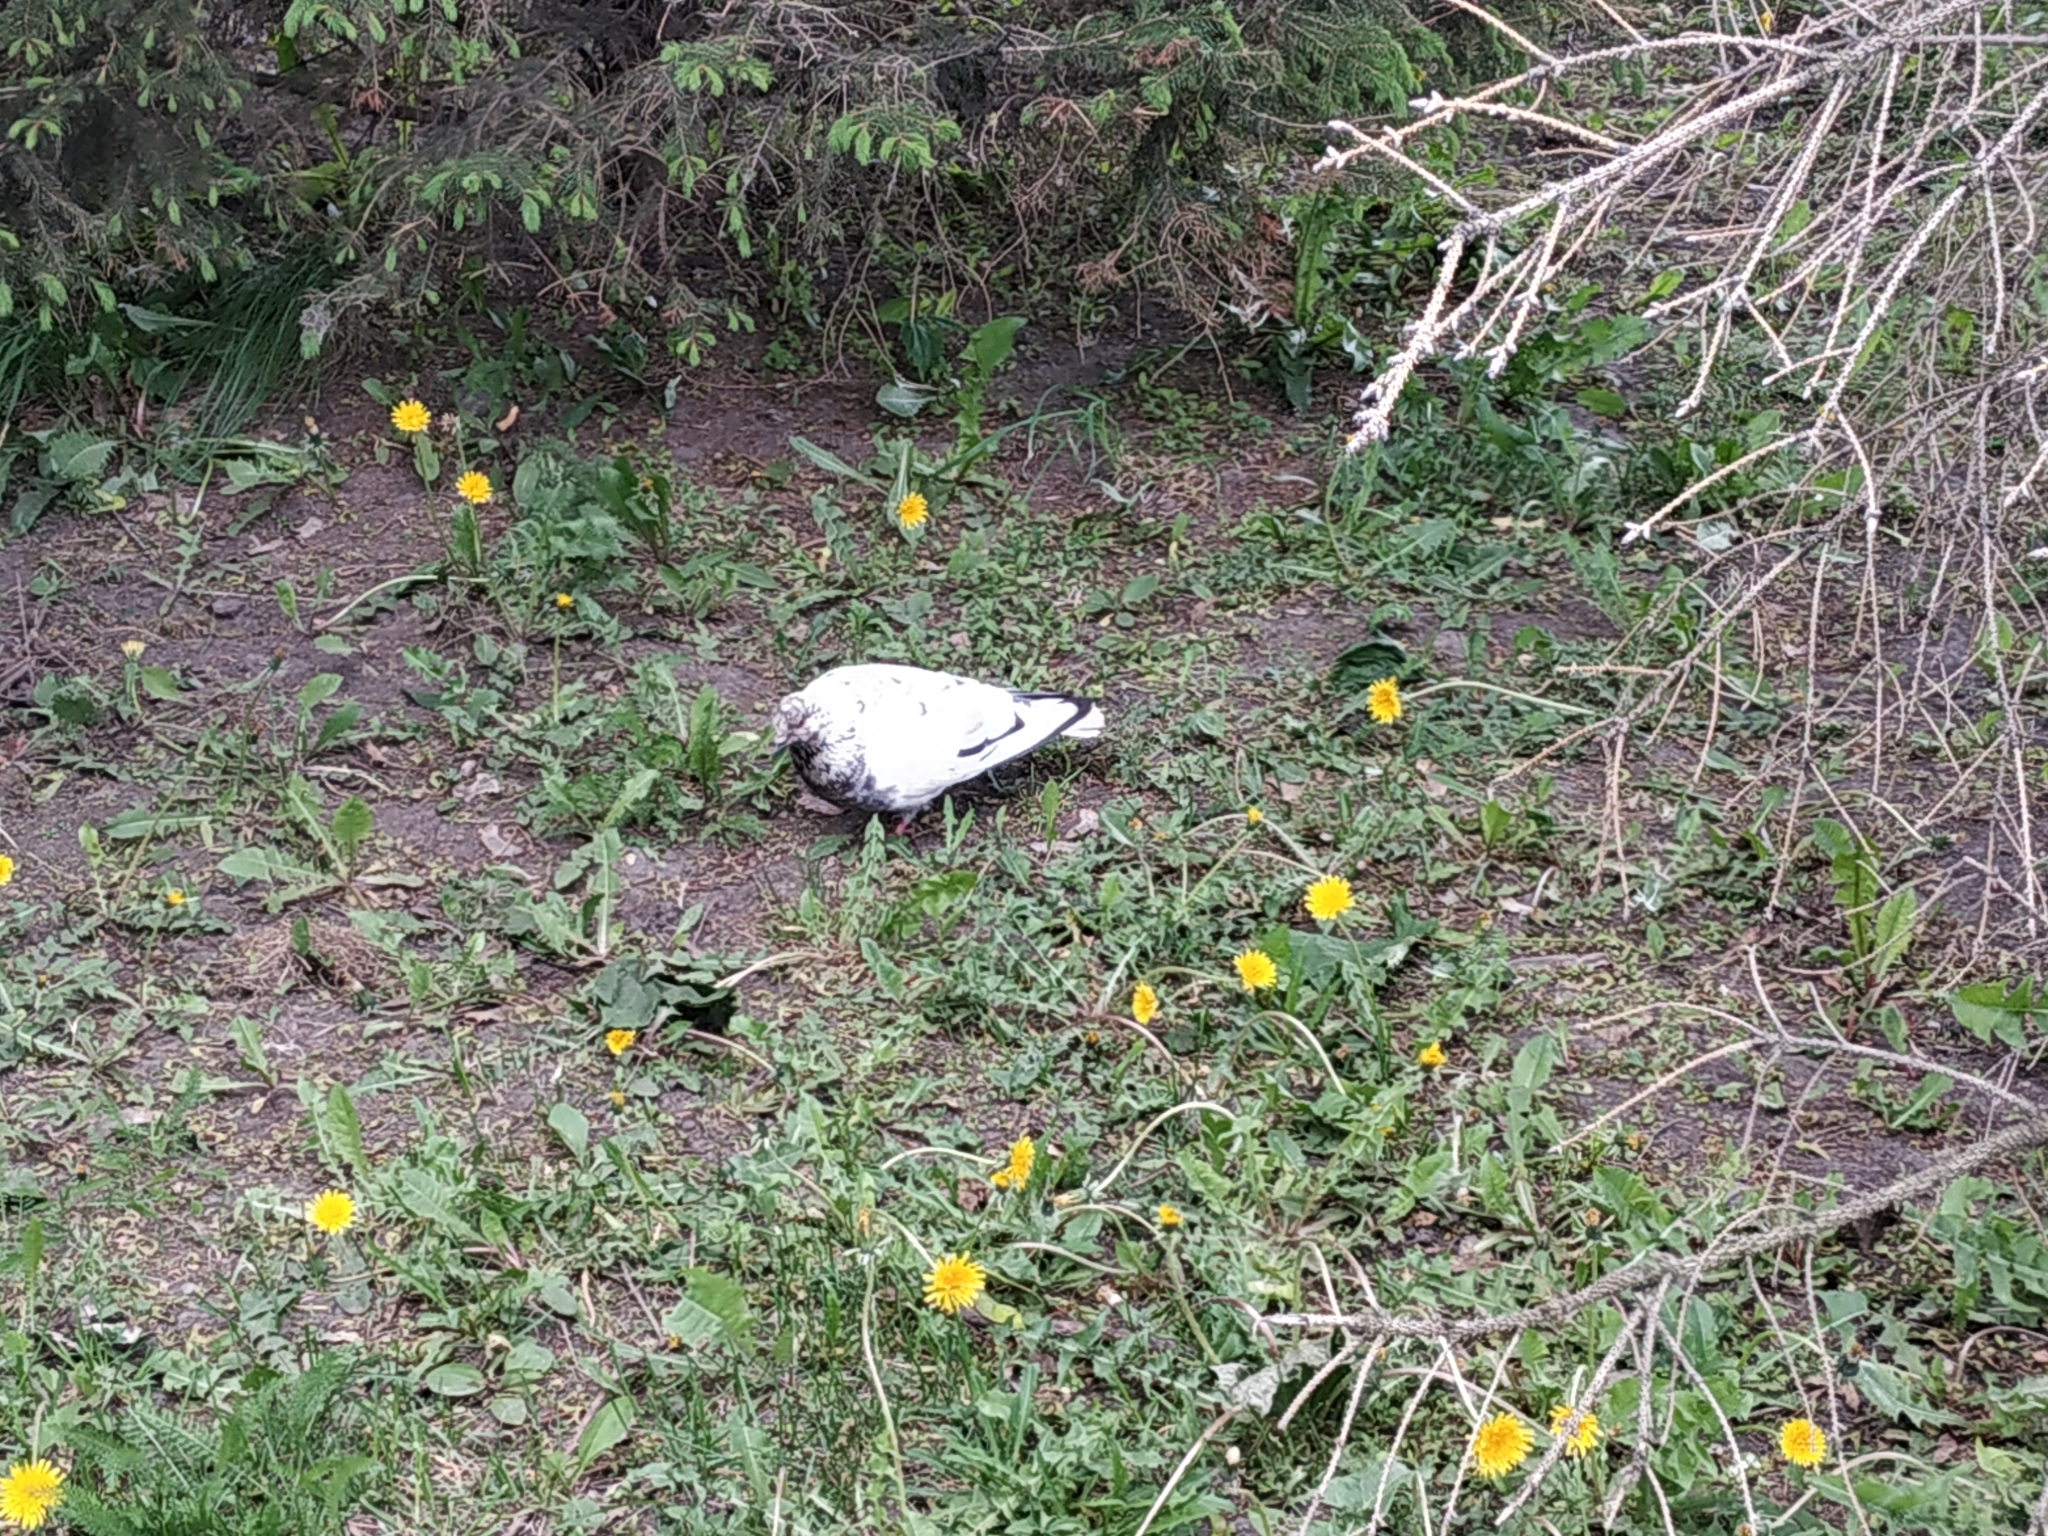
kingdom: Animalia
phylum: Chordata
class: Aves
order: Columbiformes
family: Columbidae
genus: Columba
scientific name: Columba livia
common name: Rock pigeon
